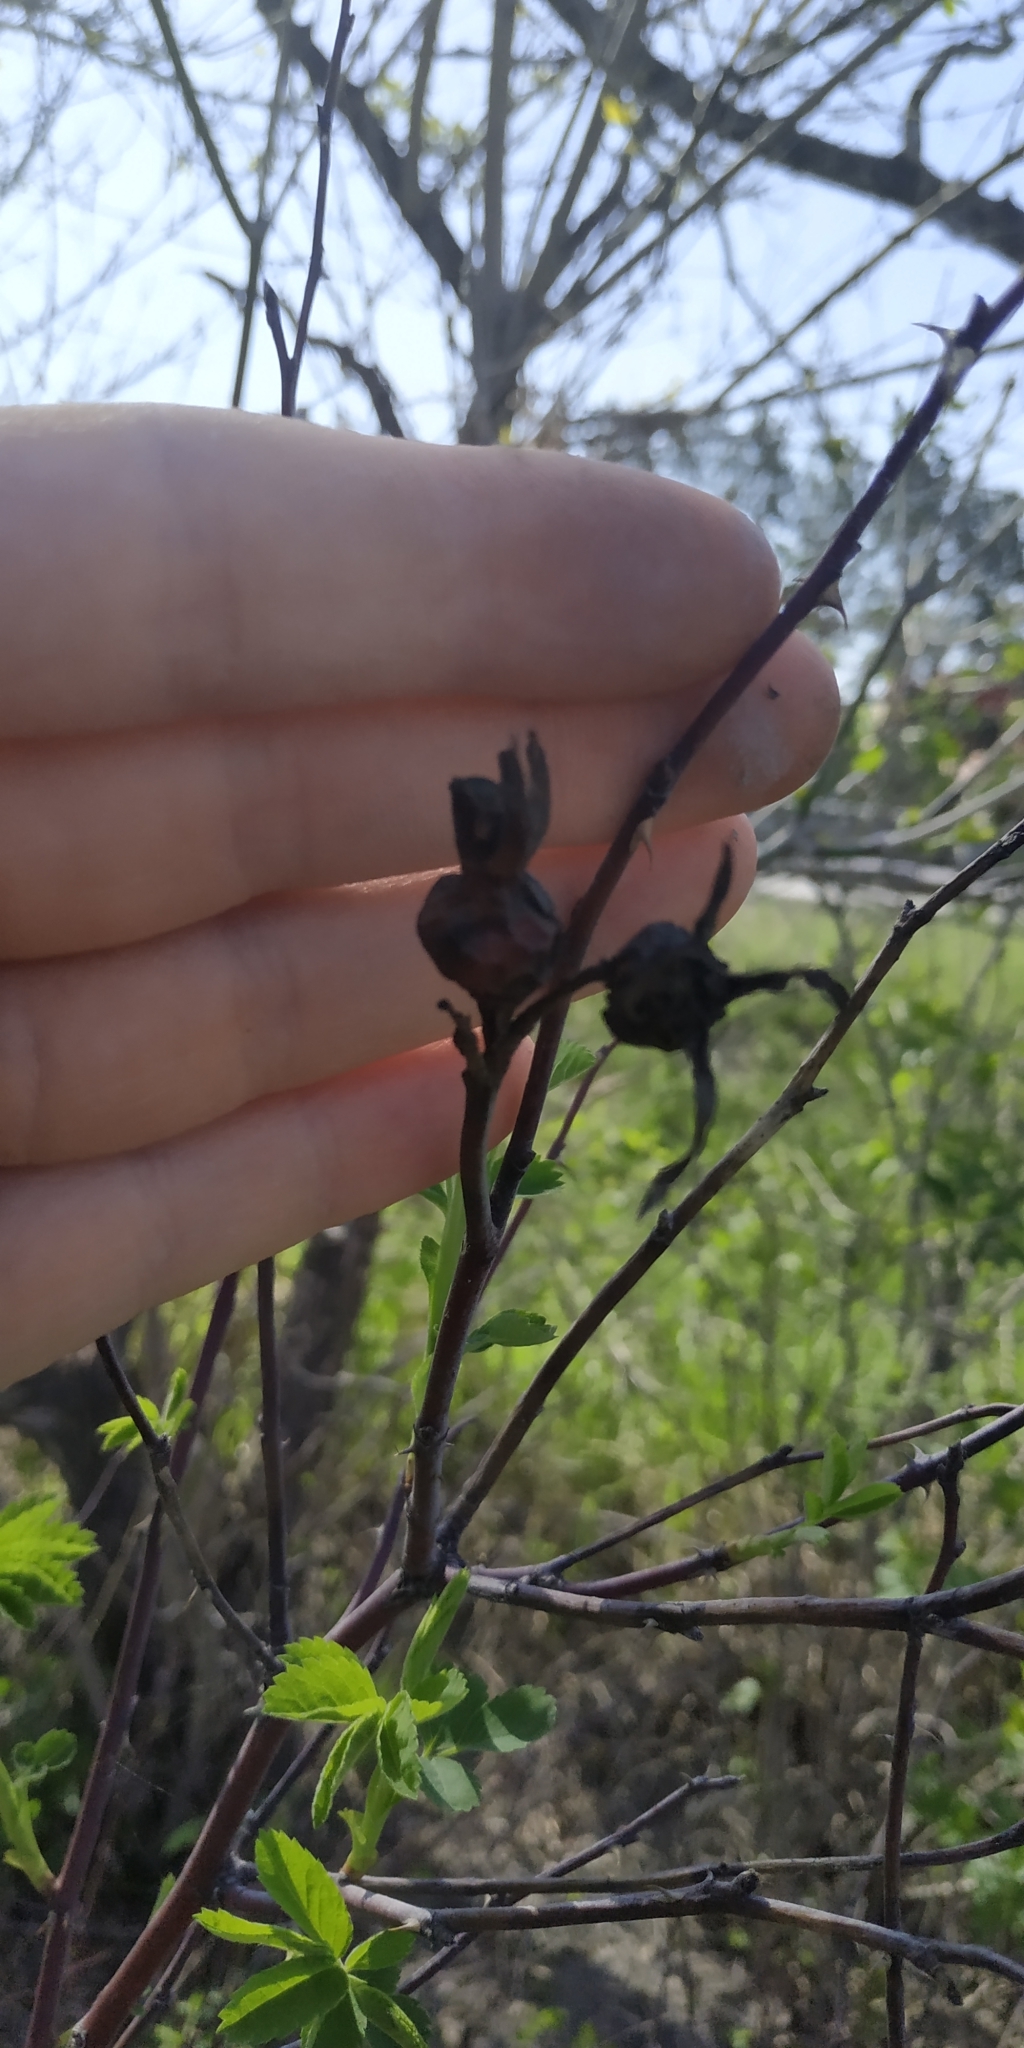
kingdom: Plantae
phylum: Tracheophyta
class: Magnoliopsida
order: Rosales
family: Rosaceae
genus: Rosa
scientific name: Rosa majalis
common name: Cinnamon rose
